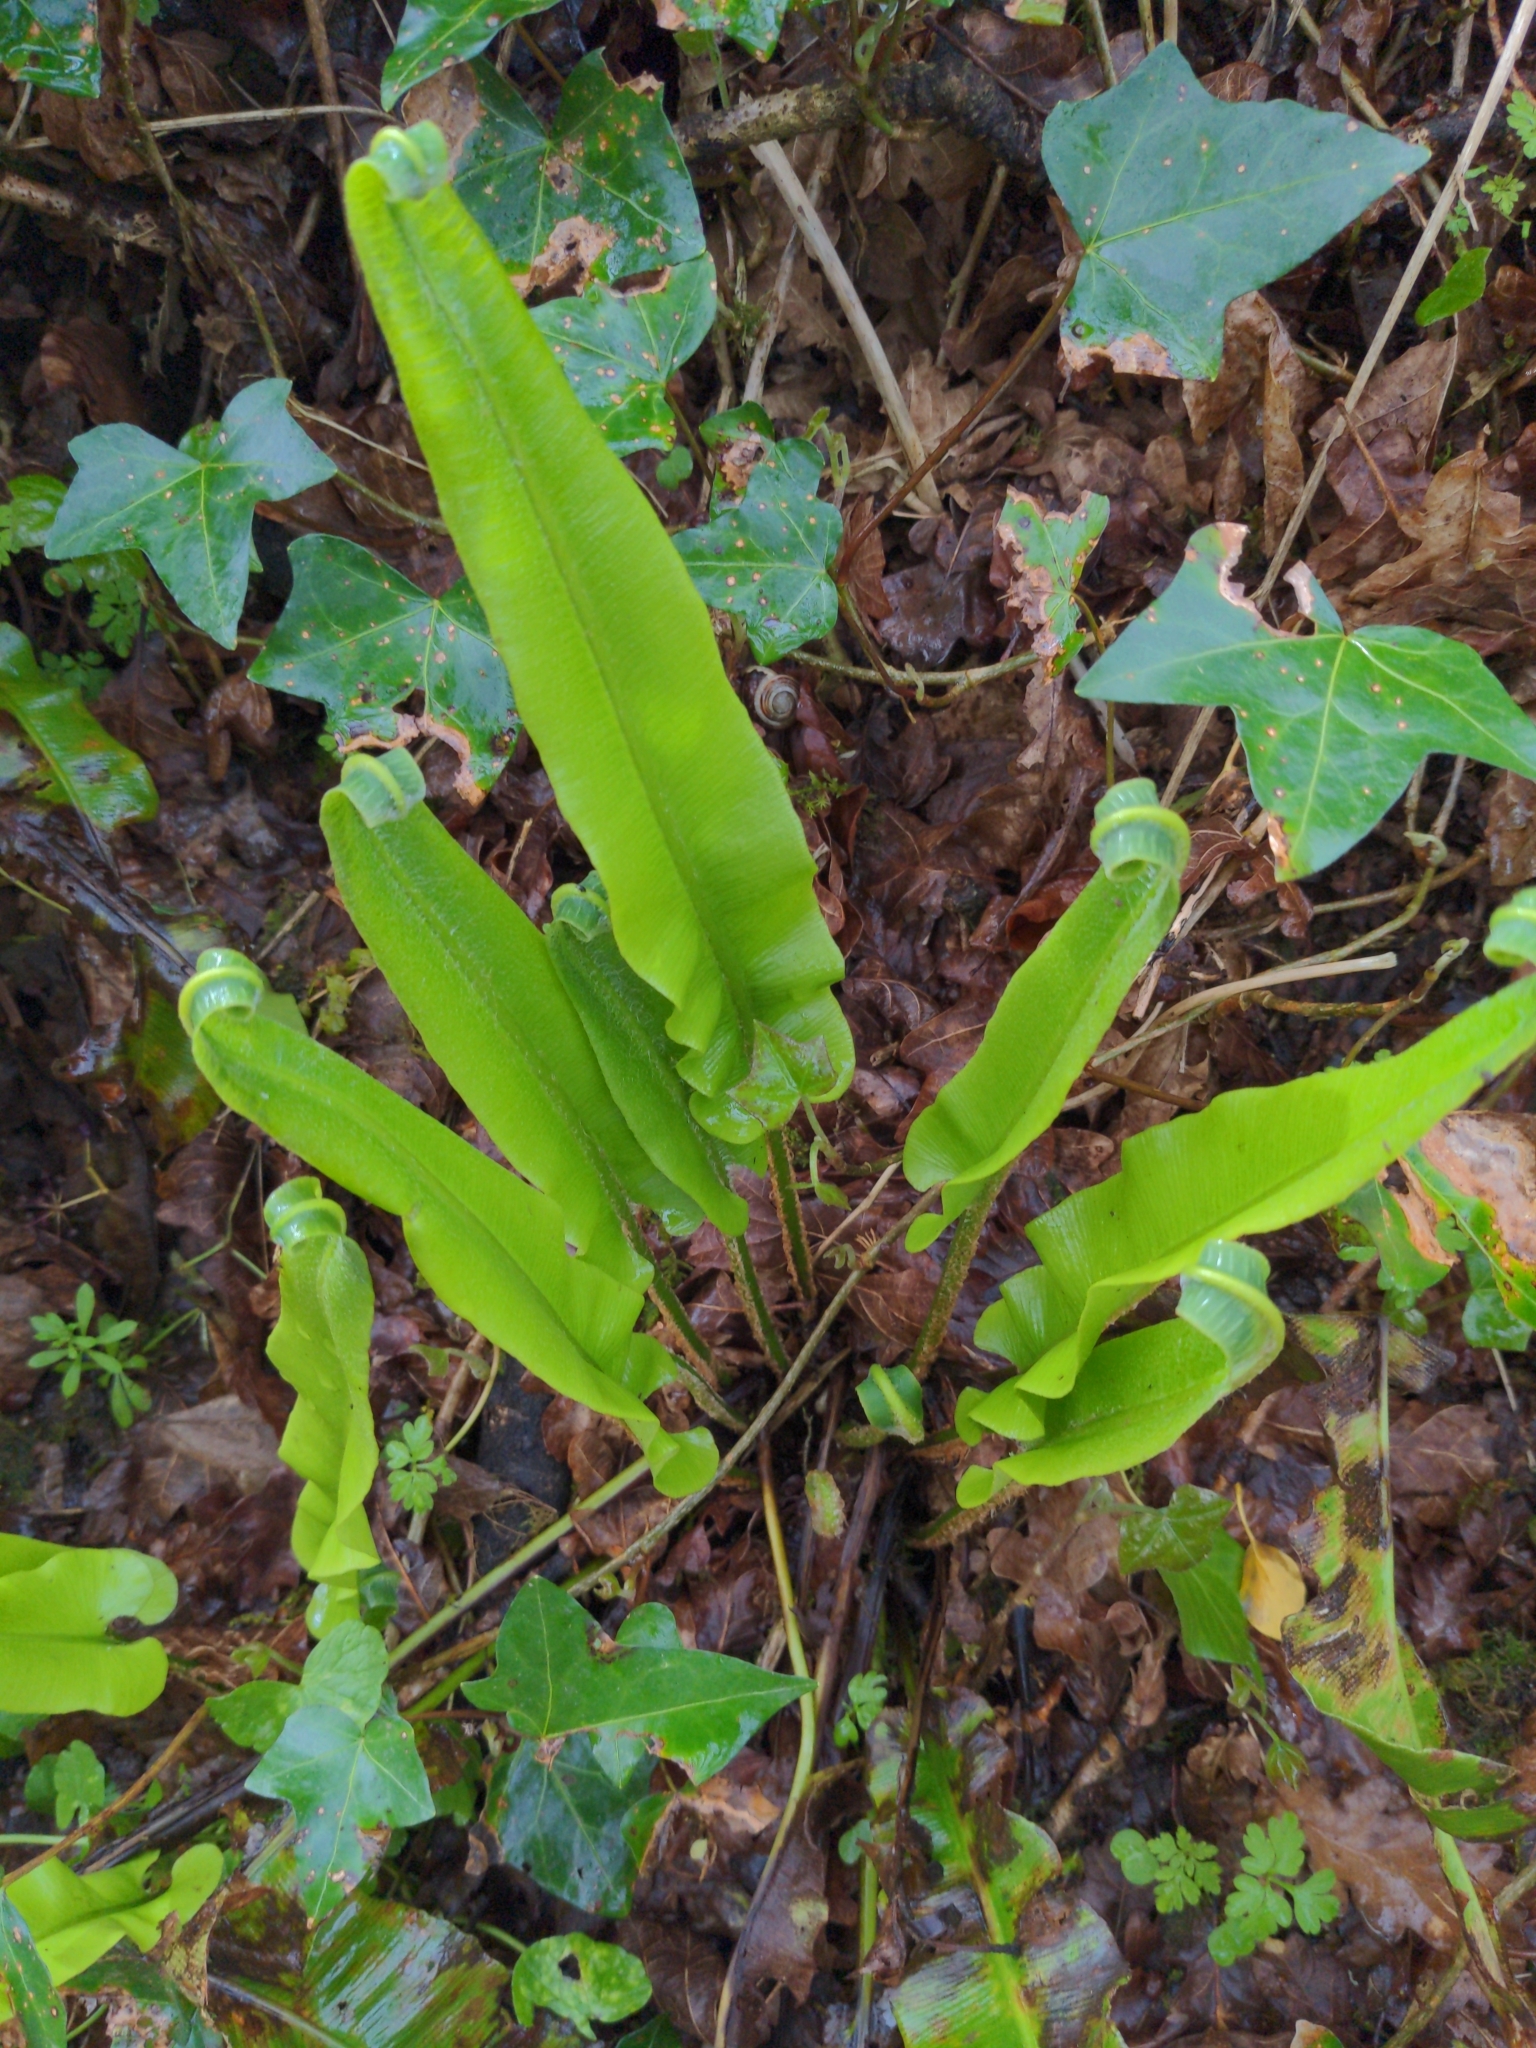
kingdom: Plantae
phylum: Tracheophyta
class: Polypodiopsida
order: Polypodiales
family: Aspleniaceae
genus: Asplenium
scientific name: Asplenium scolopendrium
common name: Hart's-tongue fern
